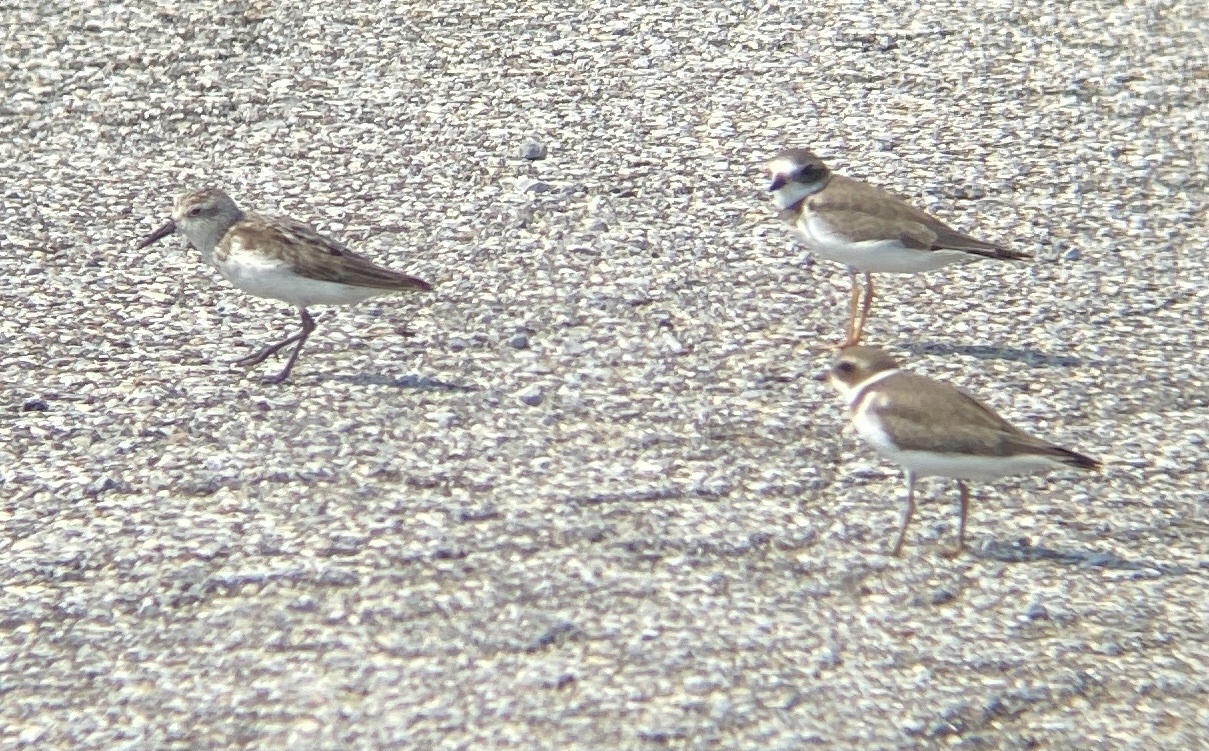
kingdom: Animalia
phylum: Chordata
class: Aves
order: Charadriiformes
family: Scolopacidae
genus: Calidris
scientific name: Calidris pusilla
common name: Semipalmated sandpiper
